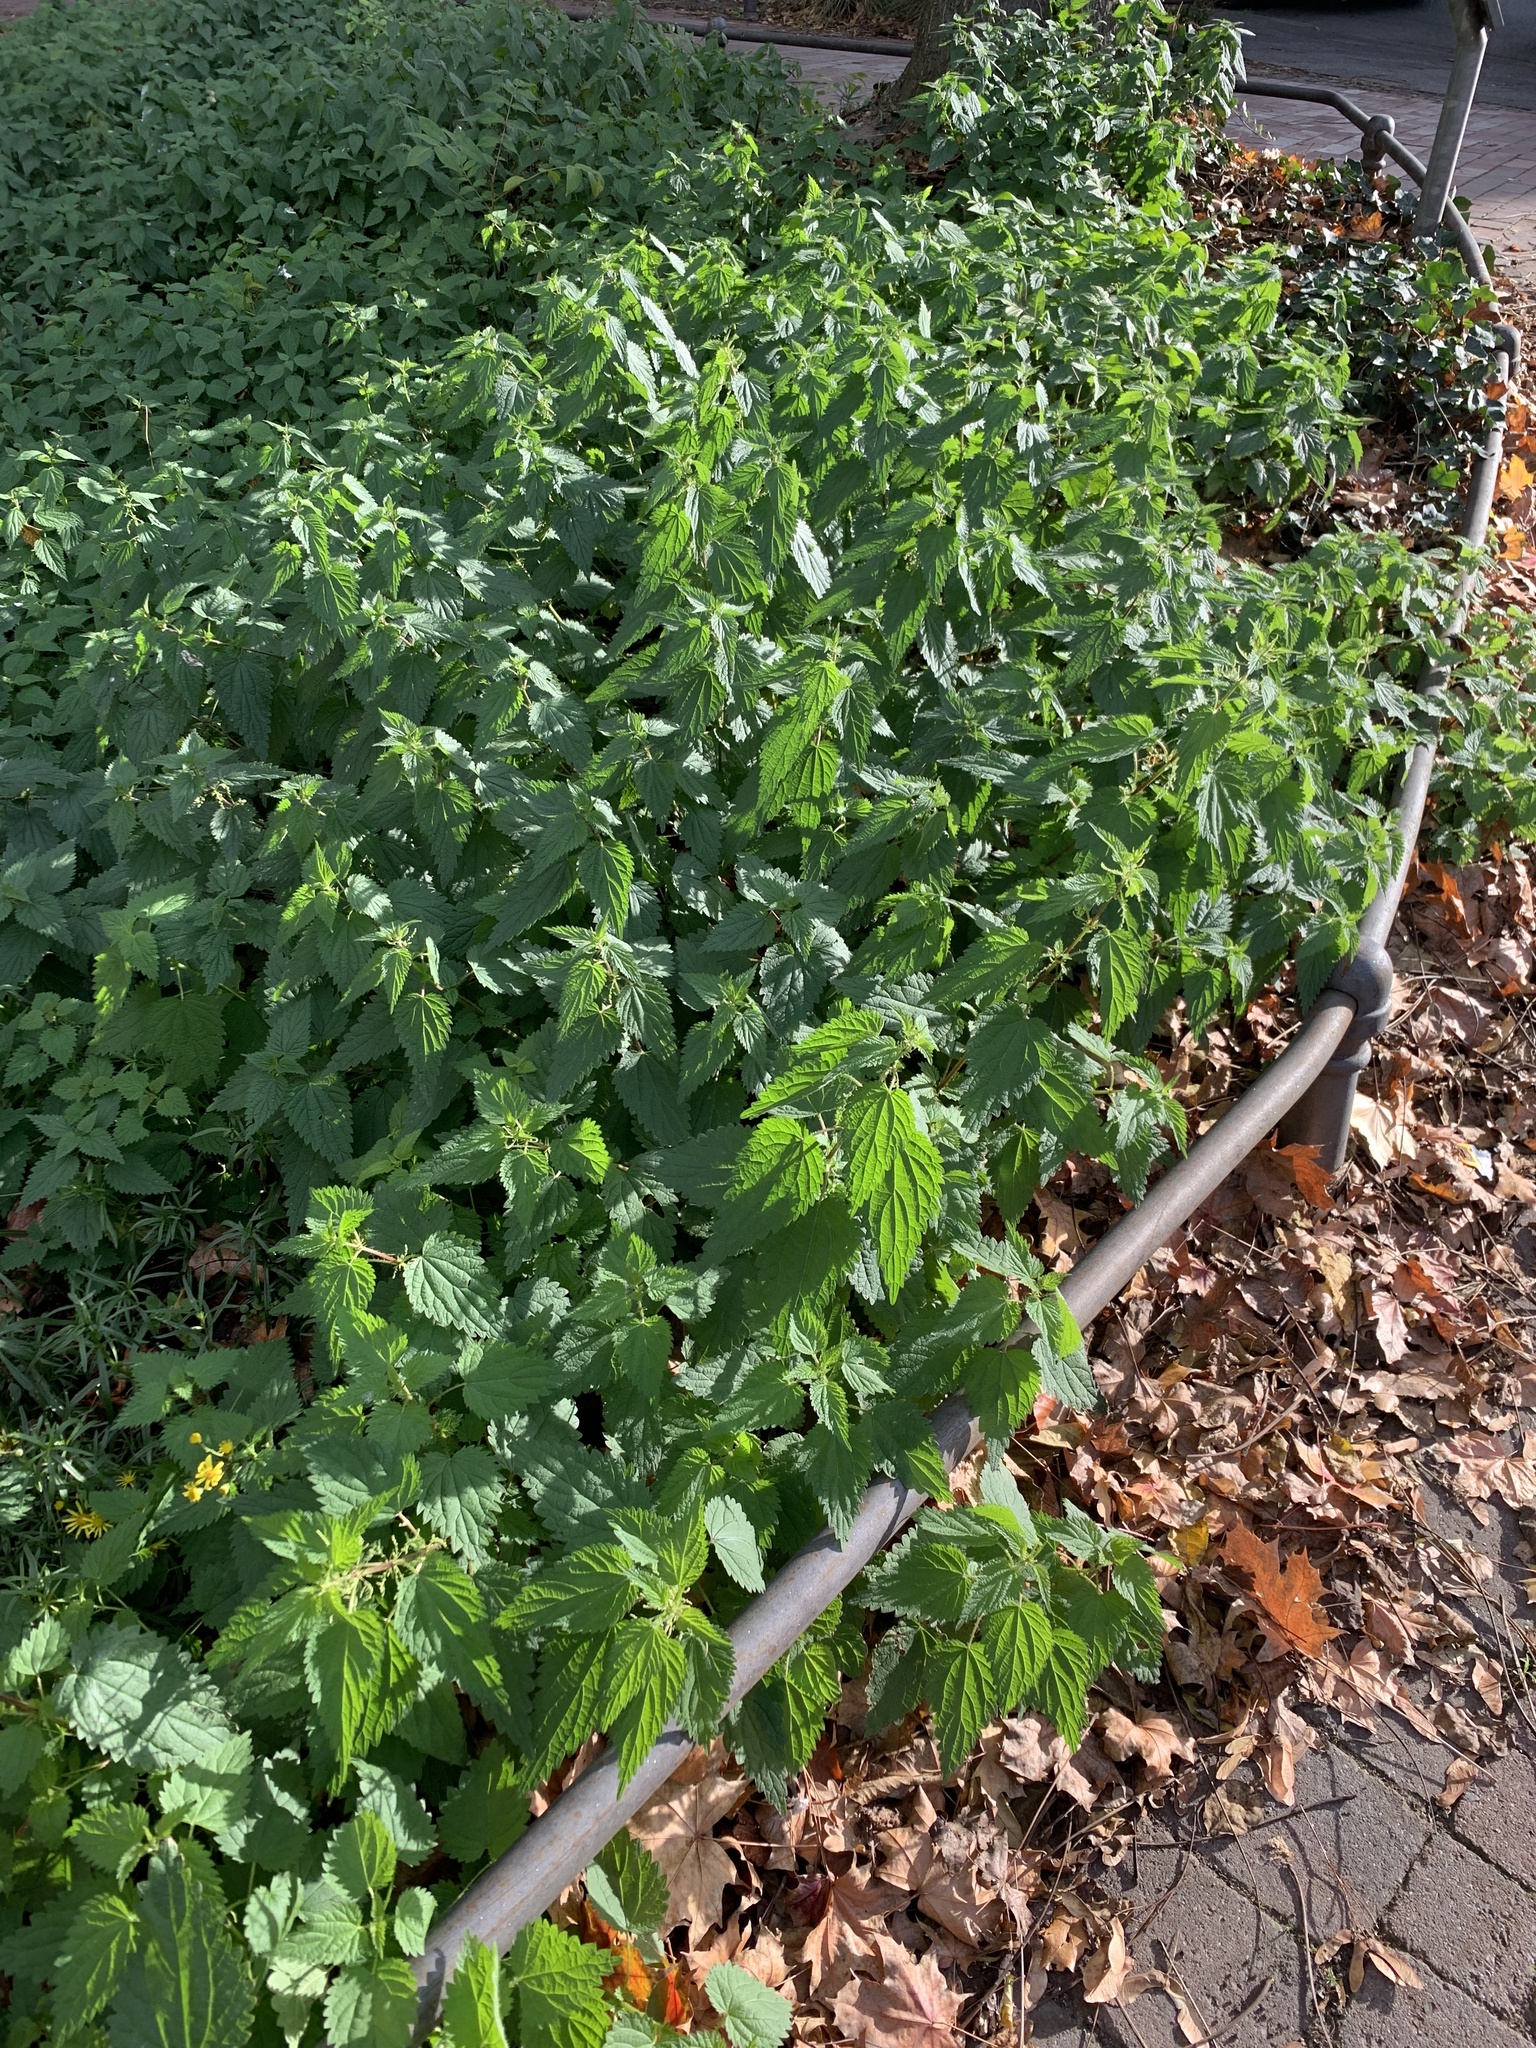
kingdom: Plantae
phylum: Tracheophyta
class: Magnoliopsida
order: Rosales
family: Urticaceae
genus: Urtica
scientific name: Urtica dioica
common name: Common nettle
